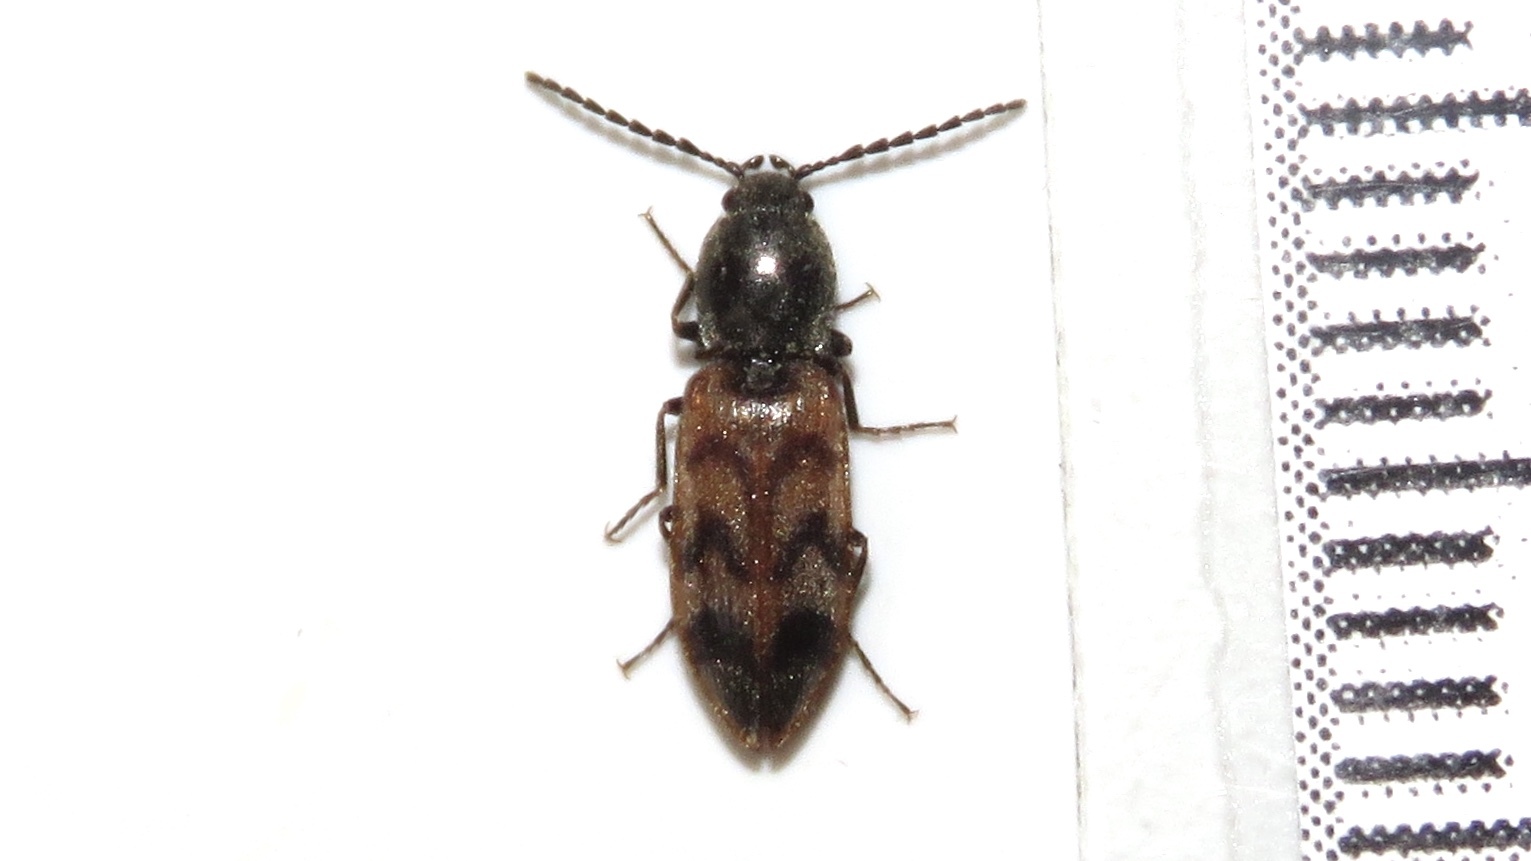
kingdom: Animalia
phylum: Arthropoda
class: Insecta
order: Coleoptera
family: Elateridae
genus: Pseudanostirus
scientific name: Pseudanostirus triundulatus
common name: Three-spotted click beetle
